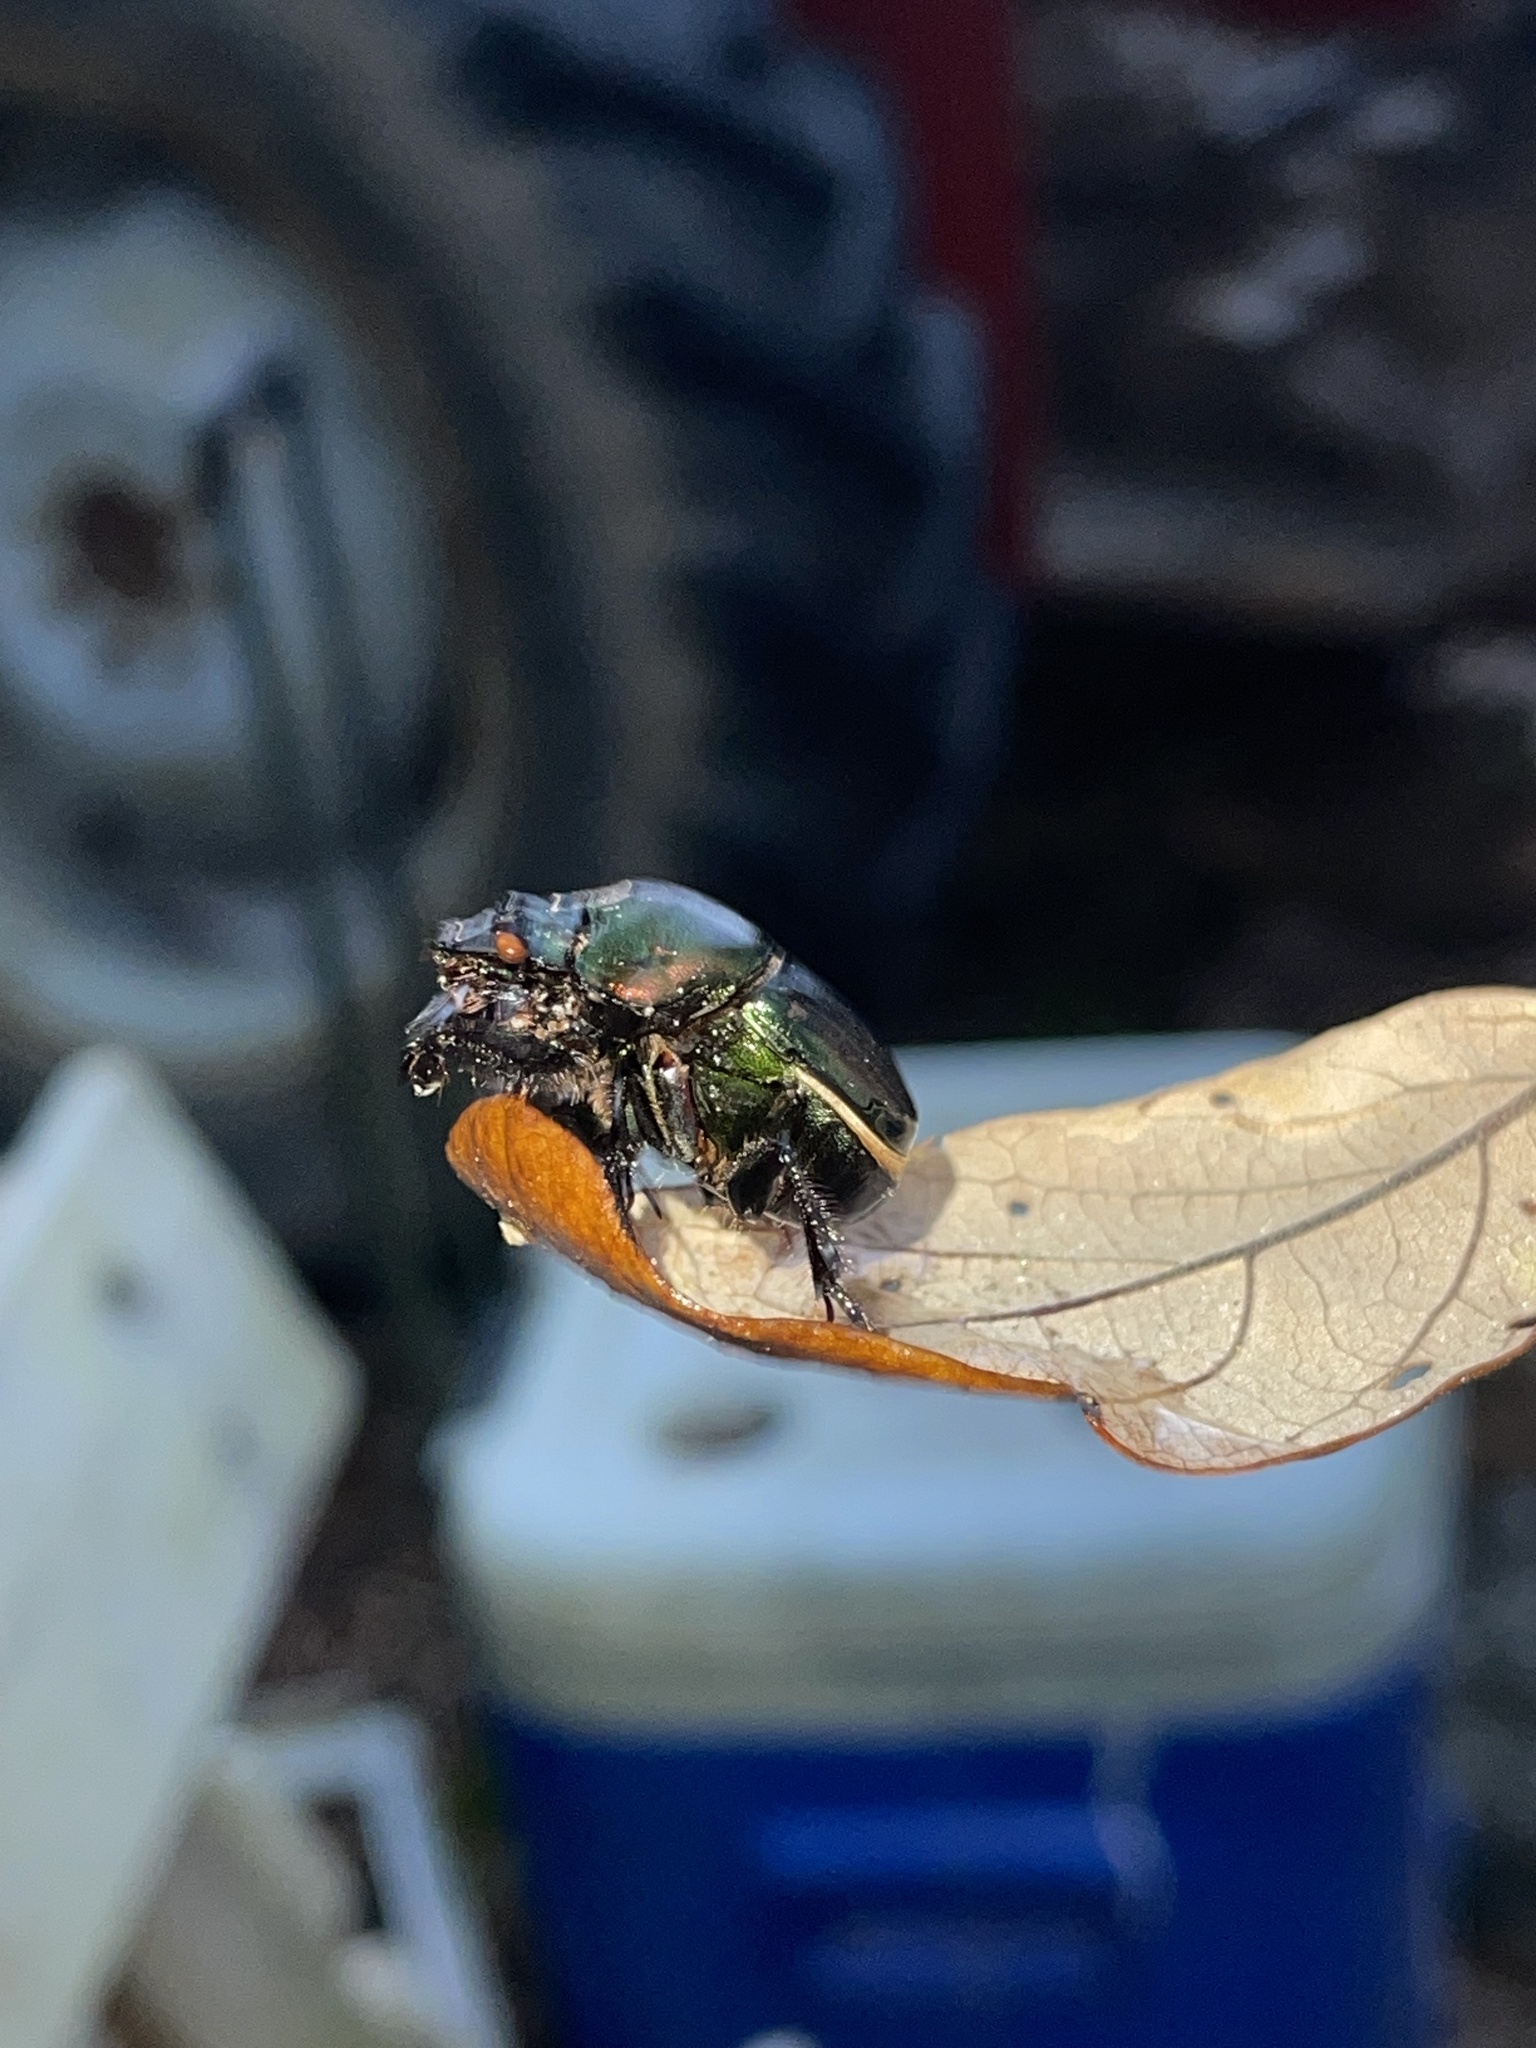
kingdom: Animalia
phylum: Arthropoda
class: Insecta
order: Coleoptera
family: Scarabaeidae
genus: Phanaeus
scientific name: Phanaeus igneus
